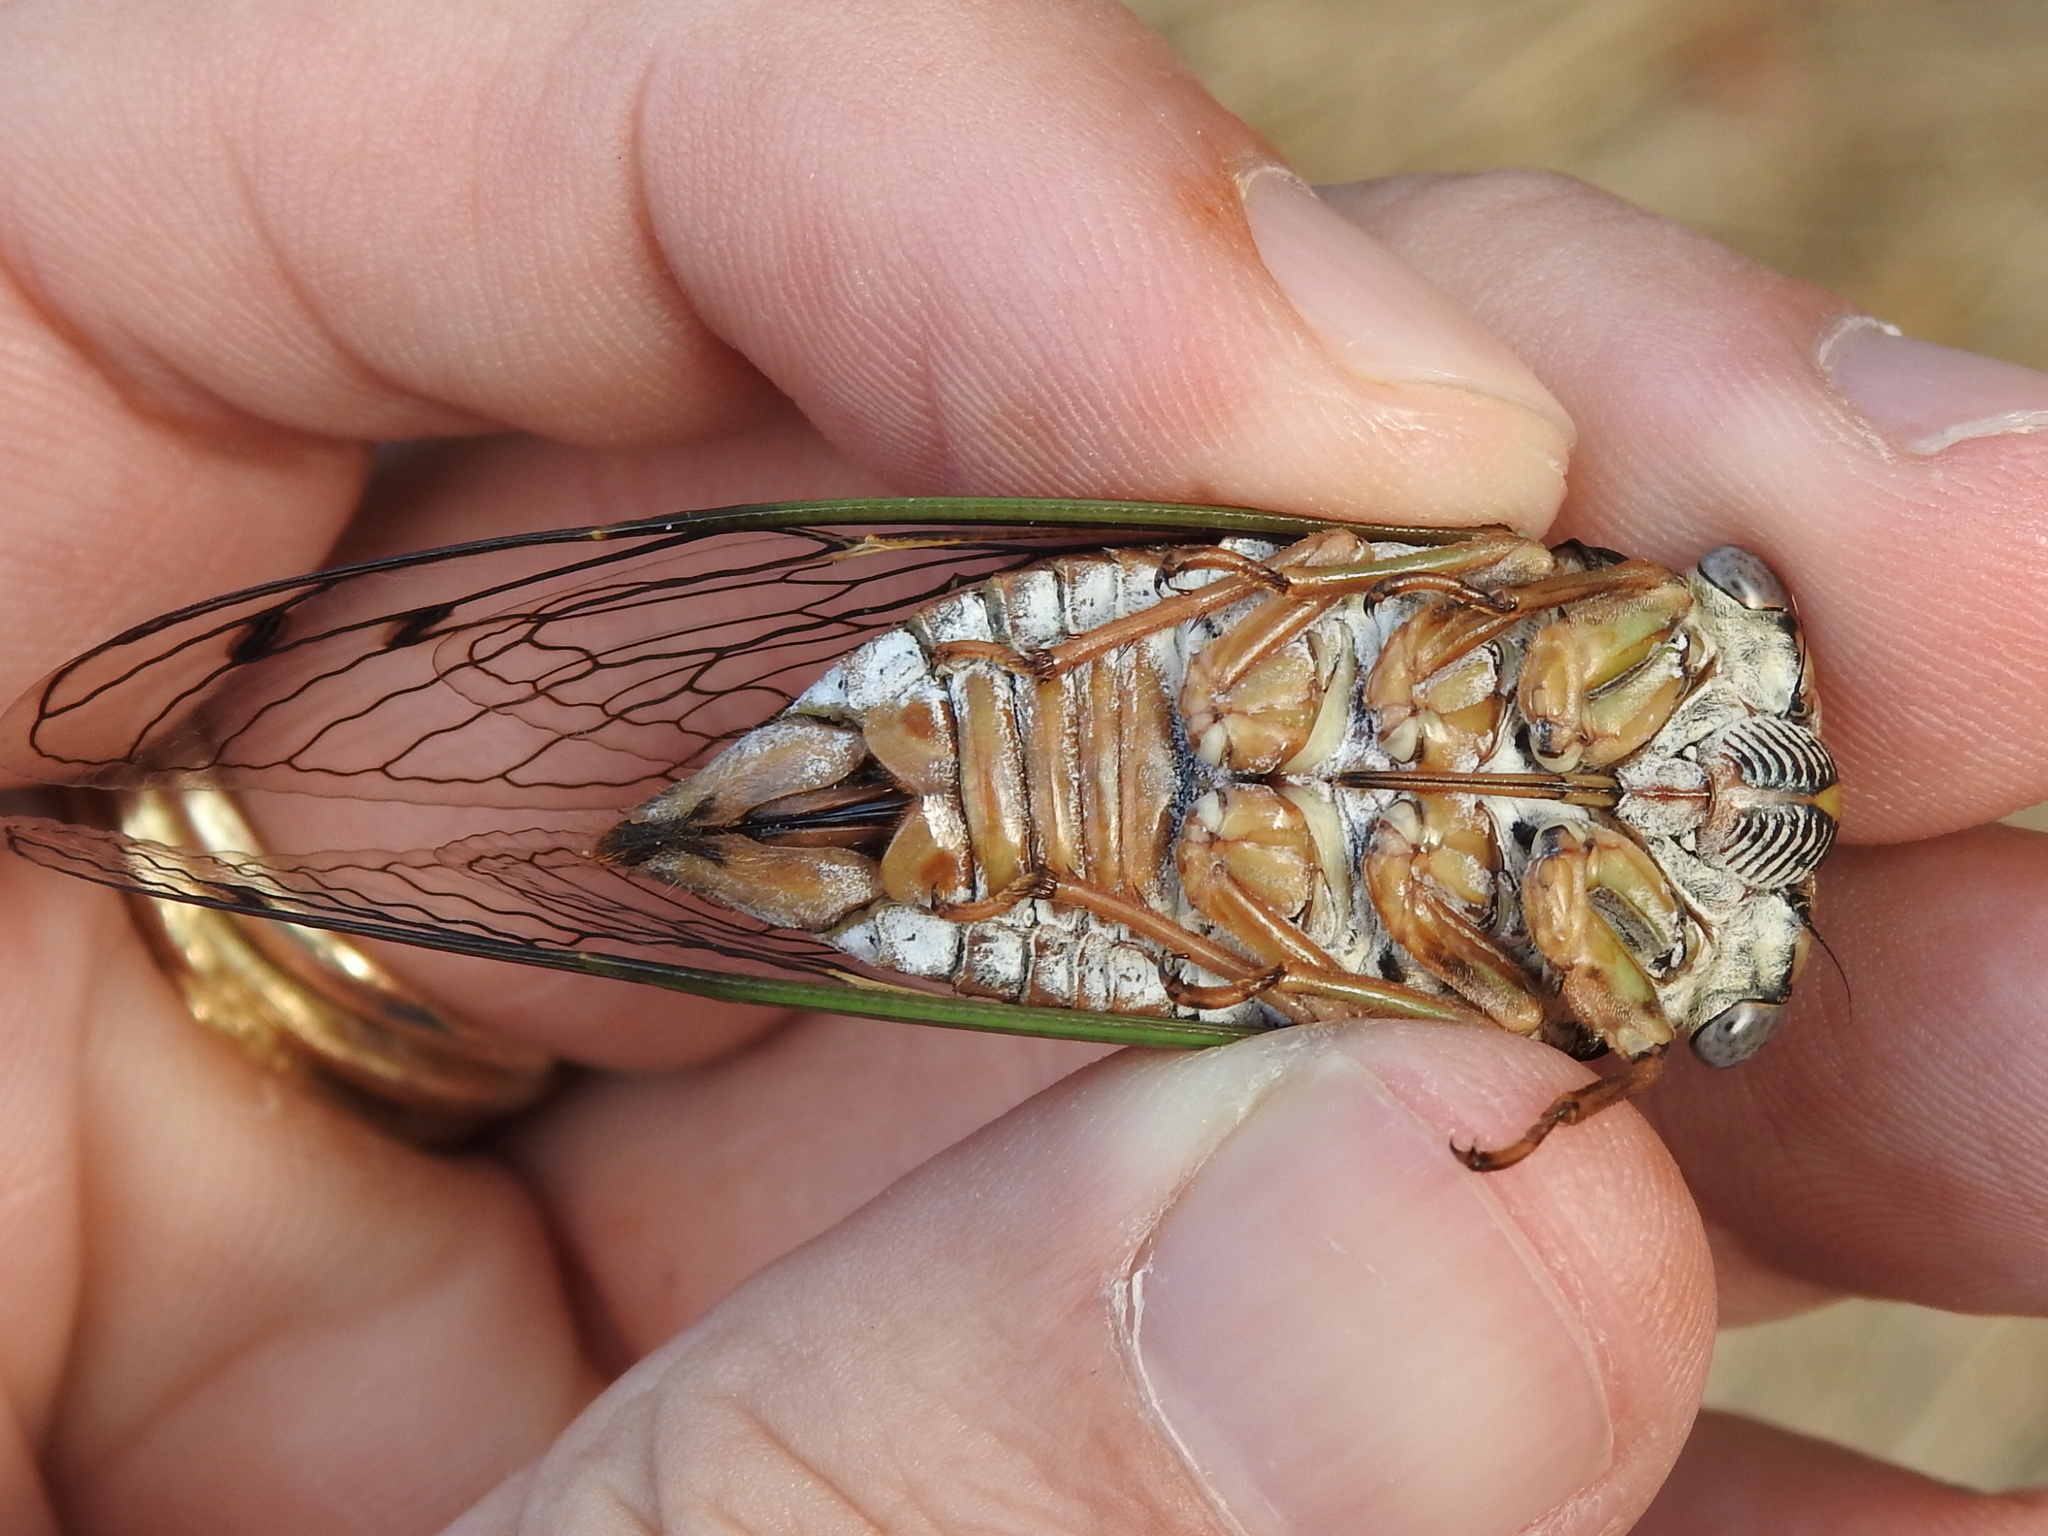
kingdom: Animalia
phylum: Arthropoda
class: Insecta
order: Hemiptera
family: Cicadidae
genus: Megatibicen
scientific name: Megatibicen resh
